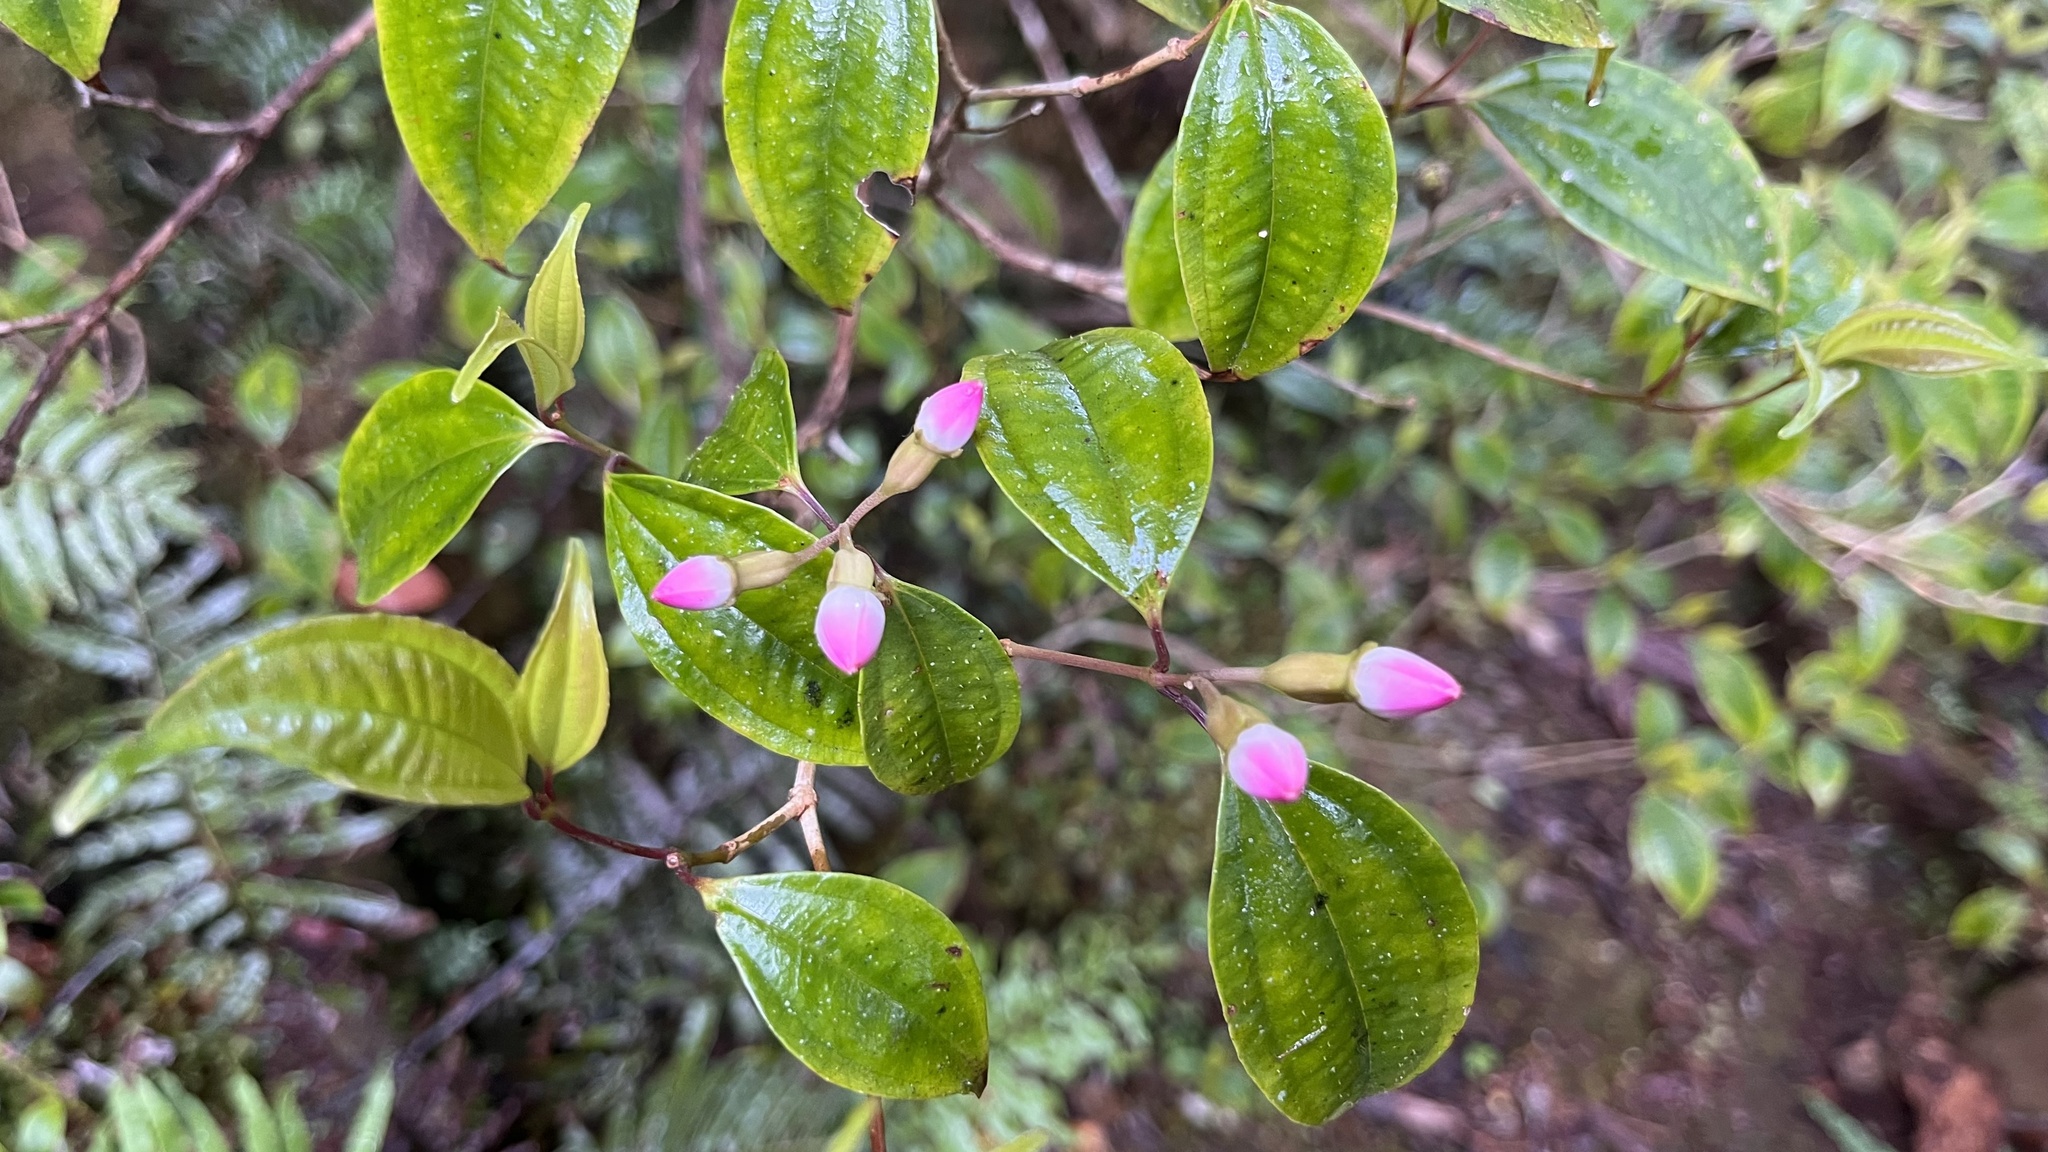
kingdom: Plantae
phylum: Tracheophyta
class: Magnoliopsida
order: Myrtales
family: Melastomataceae
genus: Barthea
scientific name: Barthea barthei
